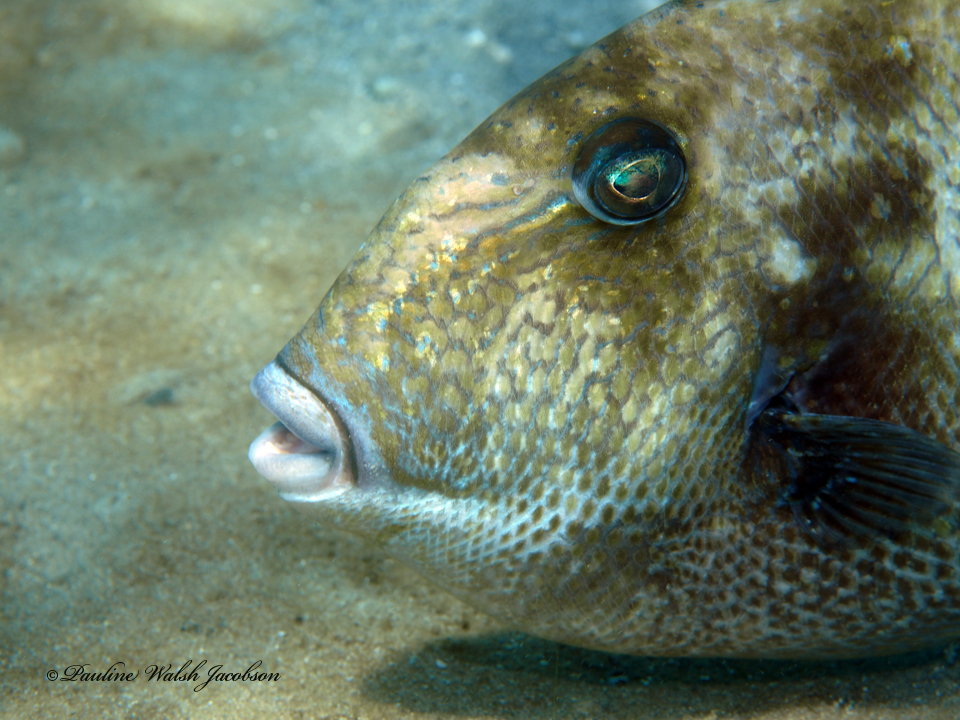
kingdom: Animalia
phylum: Chordata
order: Tetraodontiformes
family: Balistidae
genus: Balistes
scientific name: Balistes capriscus
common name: Grey triggerfish
